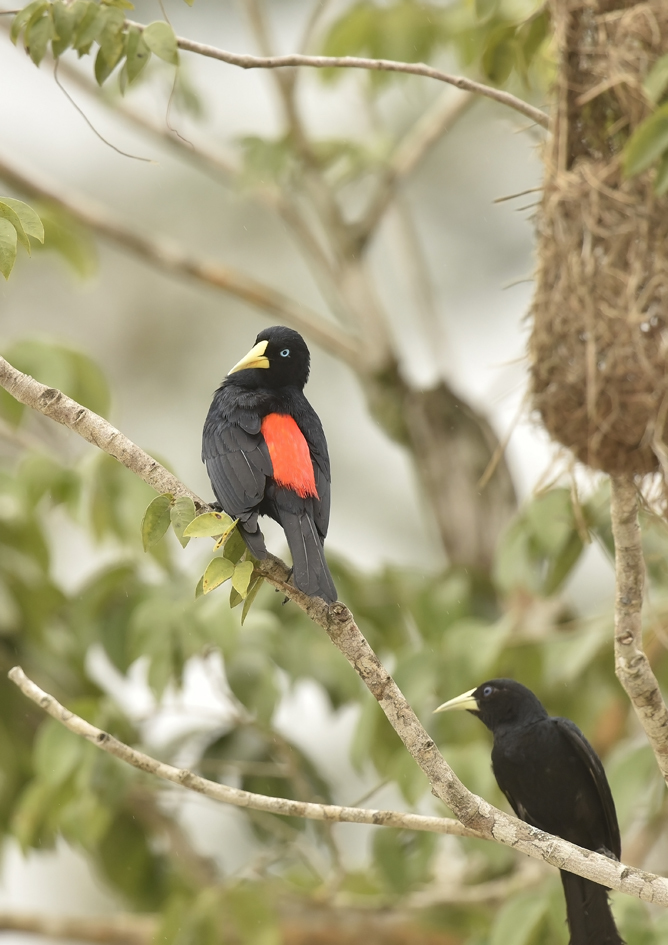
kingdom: Animalia
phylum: Chordata
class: Aves
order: Passeriformes
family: Icteridae
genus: Cacicus
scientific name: Cacicus haemorrhous
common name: Red-rumped cacique
